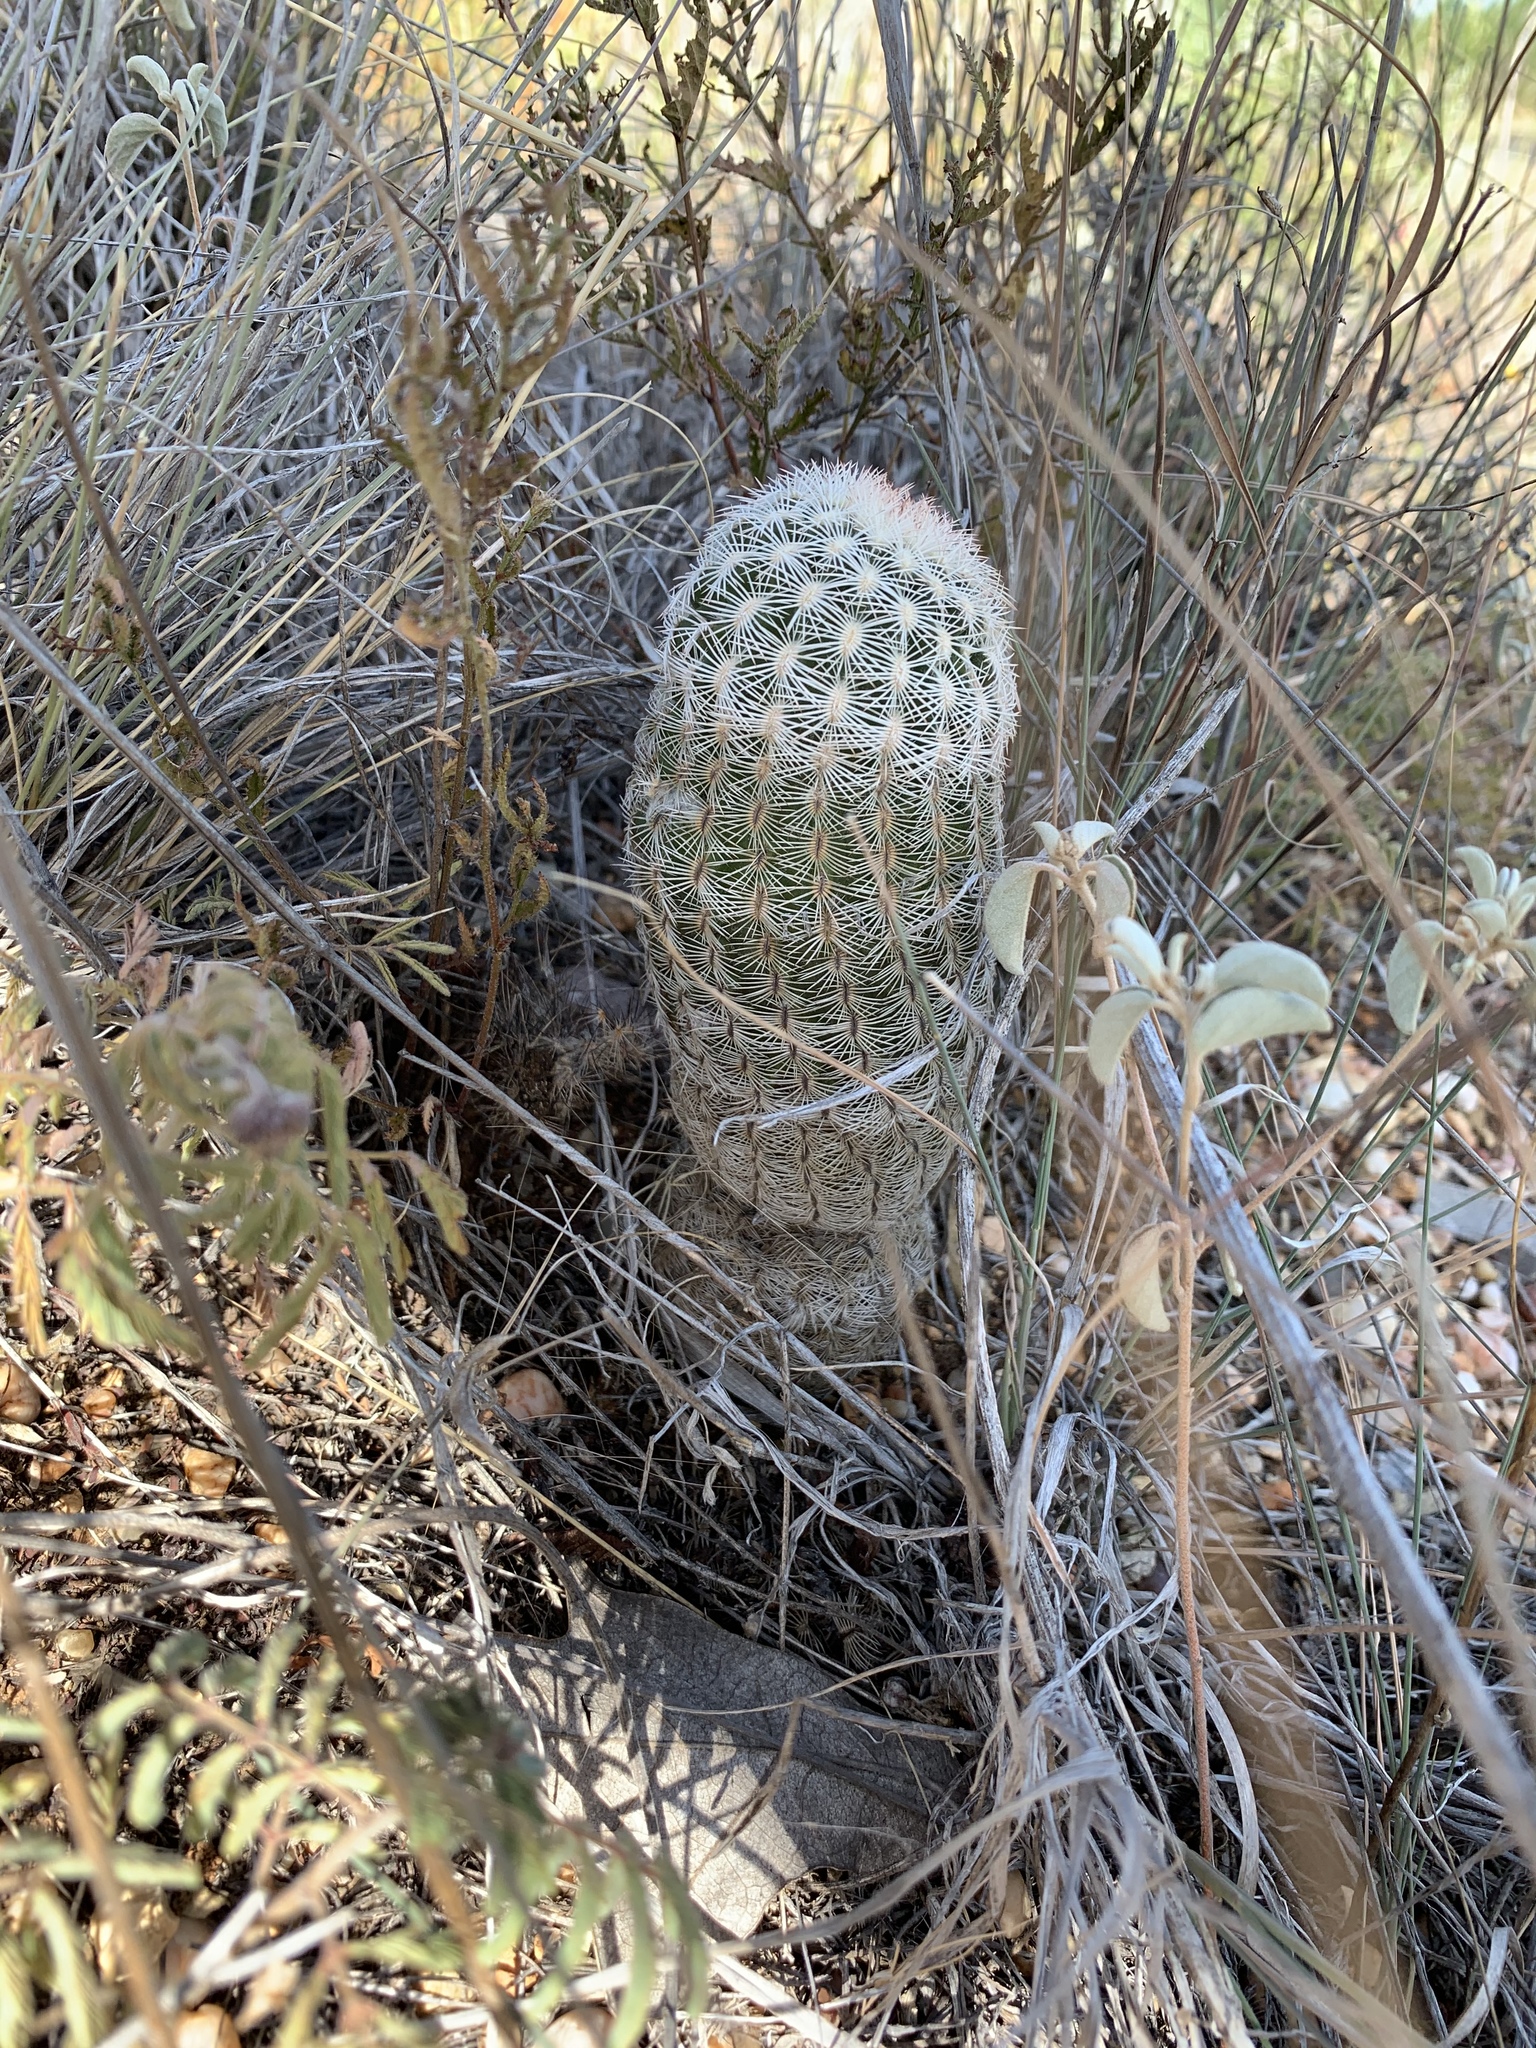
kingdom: Plantae
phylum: Tracheophyta
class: Magnoliopsida
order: Caryophyllales
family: Cactaceae
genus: Echinocereus
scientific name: Echinocereus reichenbachii
